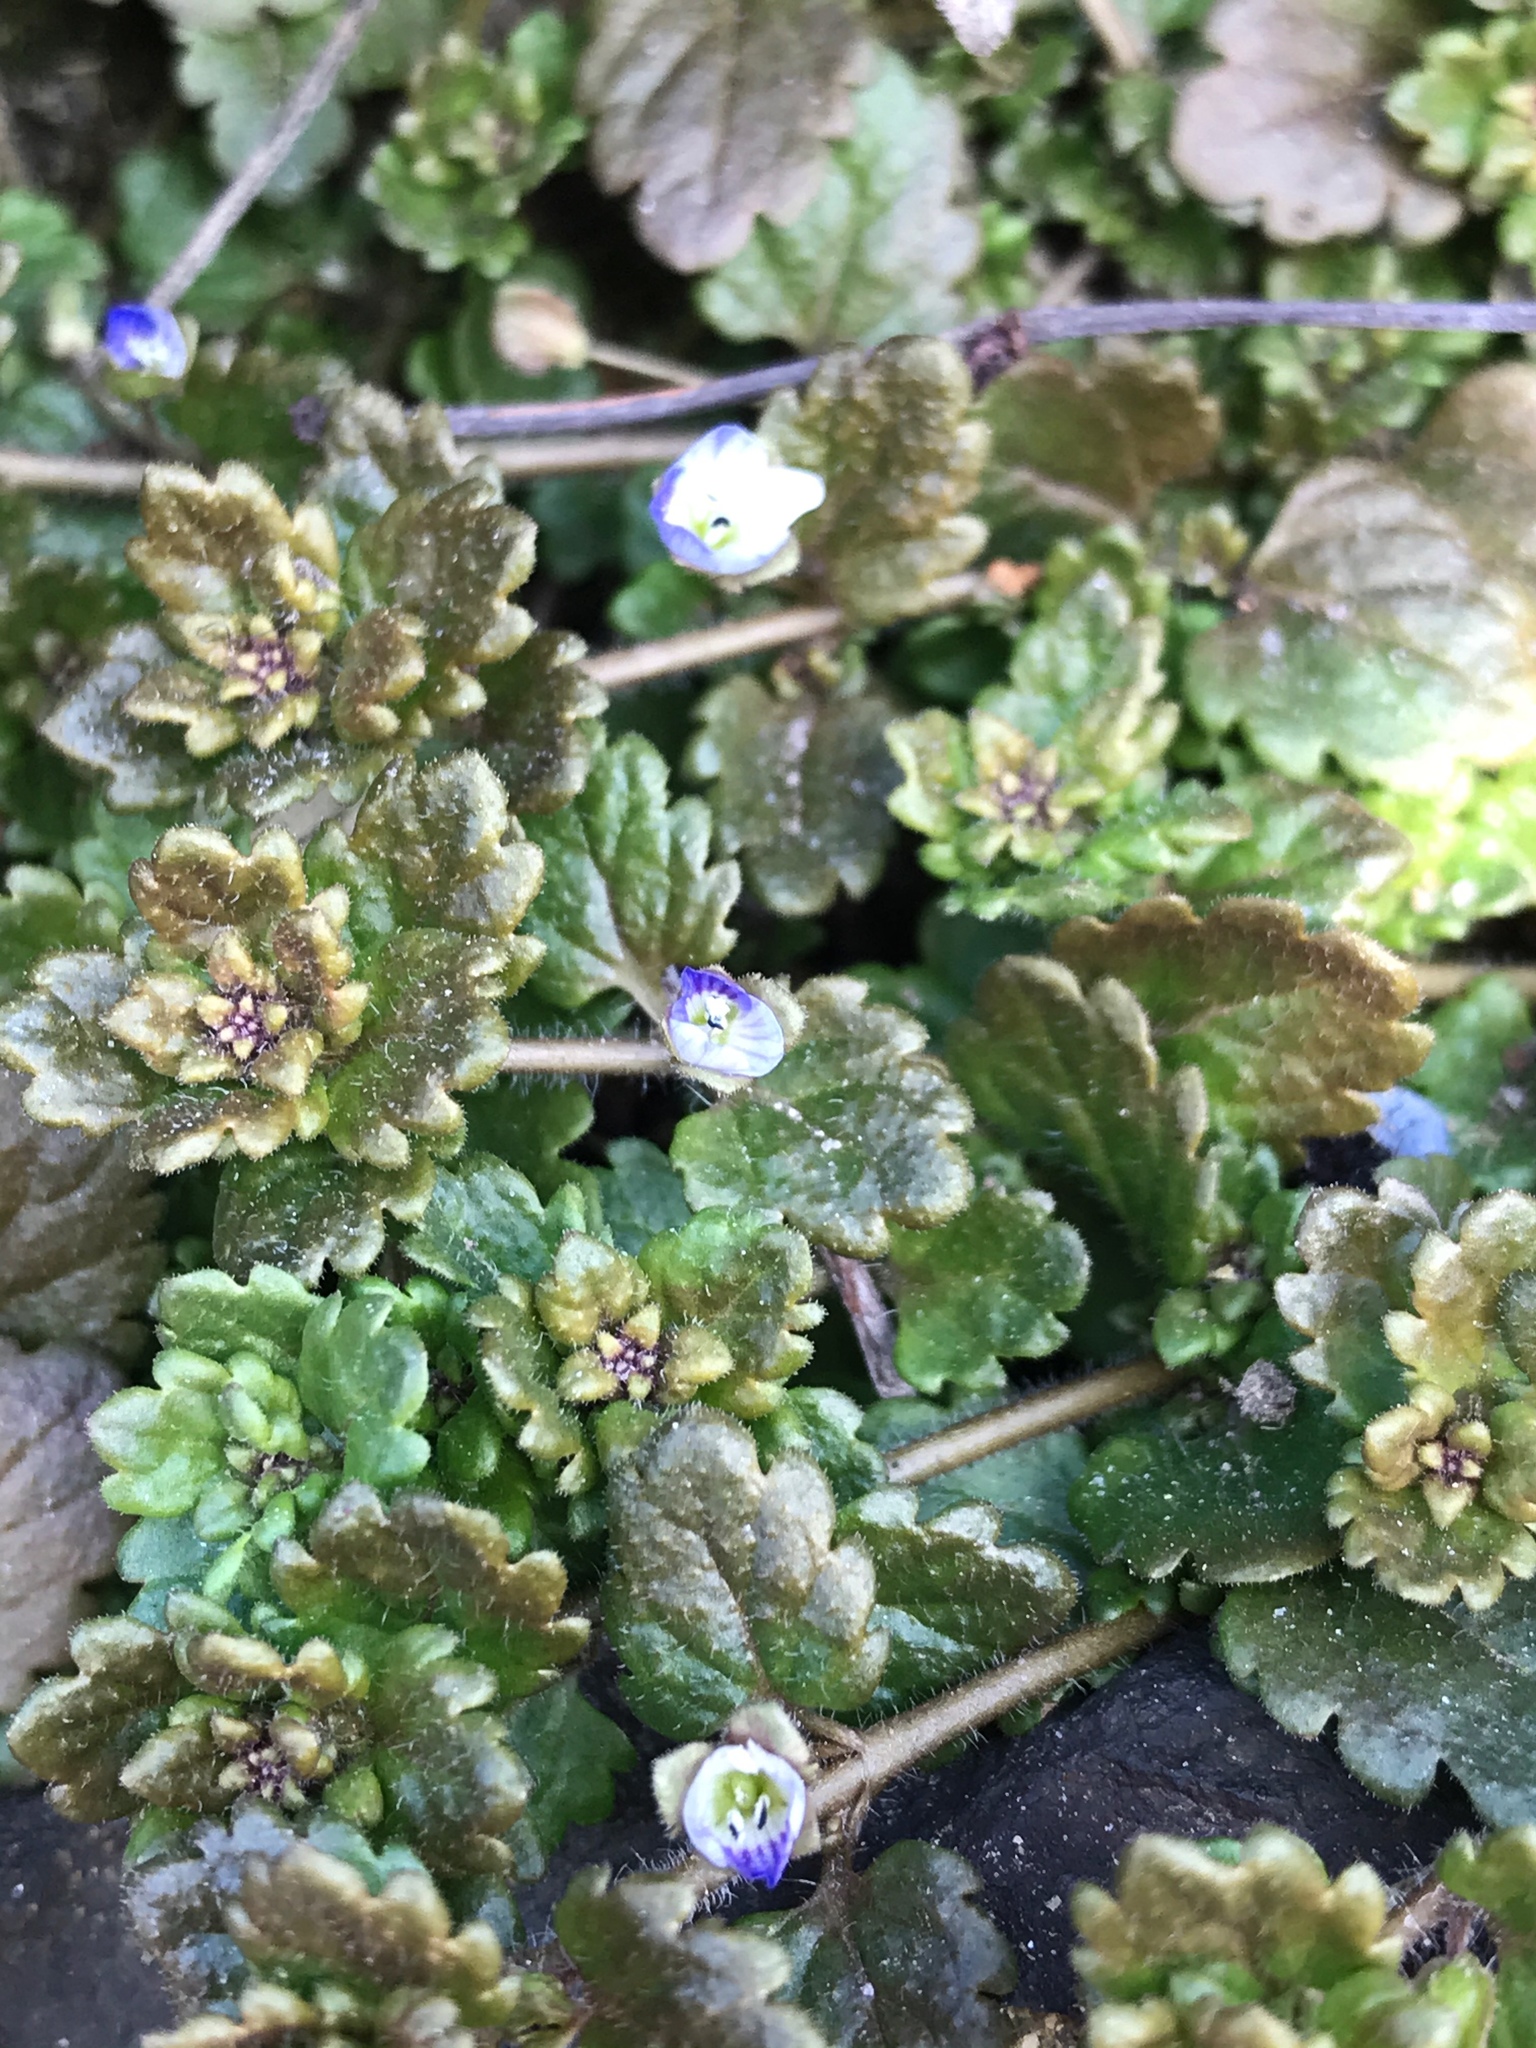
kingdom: Plantae
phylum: Tracheophyta
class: Magnoliopsida
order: Lamiales
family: Plantaginaceae
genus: Veronica
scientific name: Veronica persica
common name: Common field-speedwell
